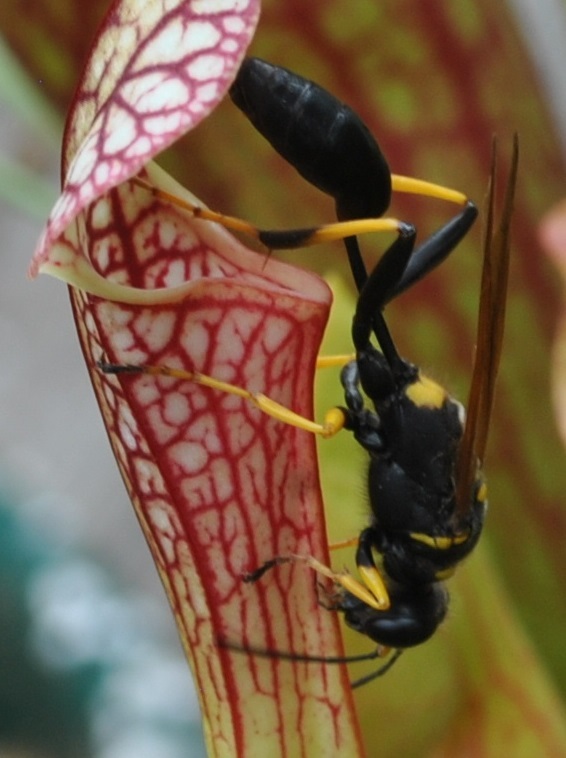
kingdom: Animalia
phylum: Arthropoda
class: Insecta
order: Hymenoptera
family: Sphecidae
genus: Sceliphron
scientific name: Sceliphron caementarium
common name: Mud dauber
